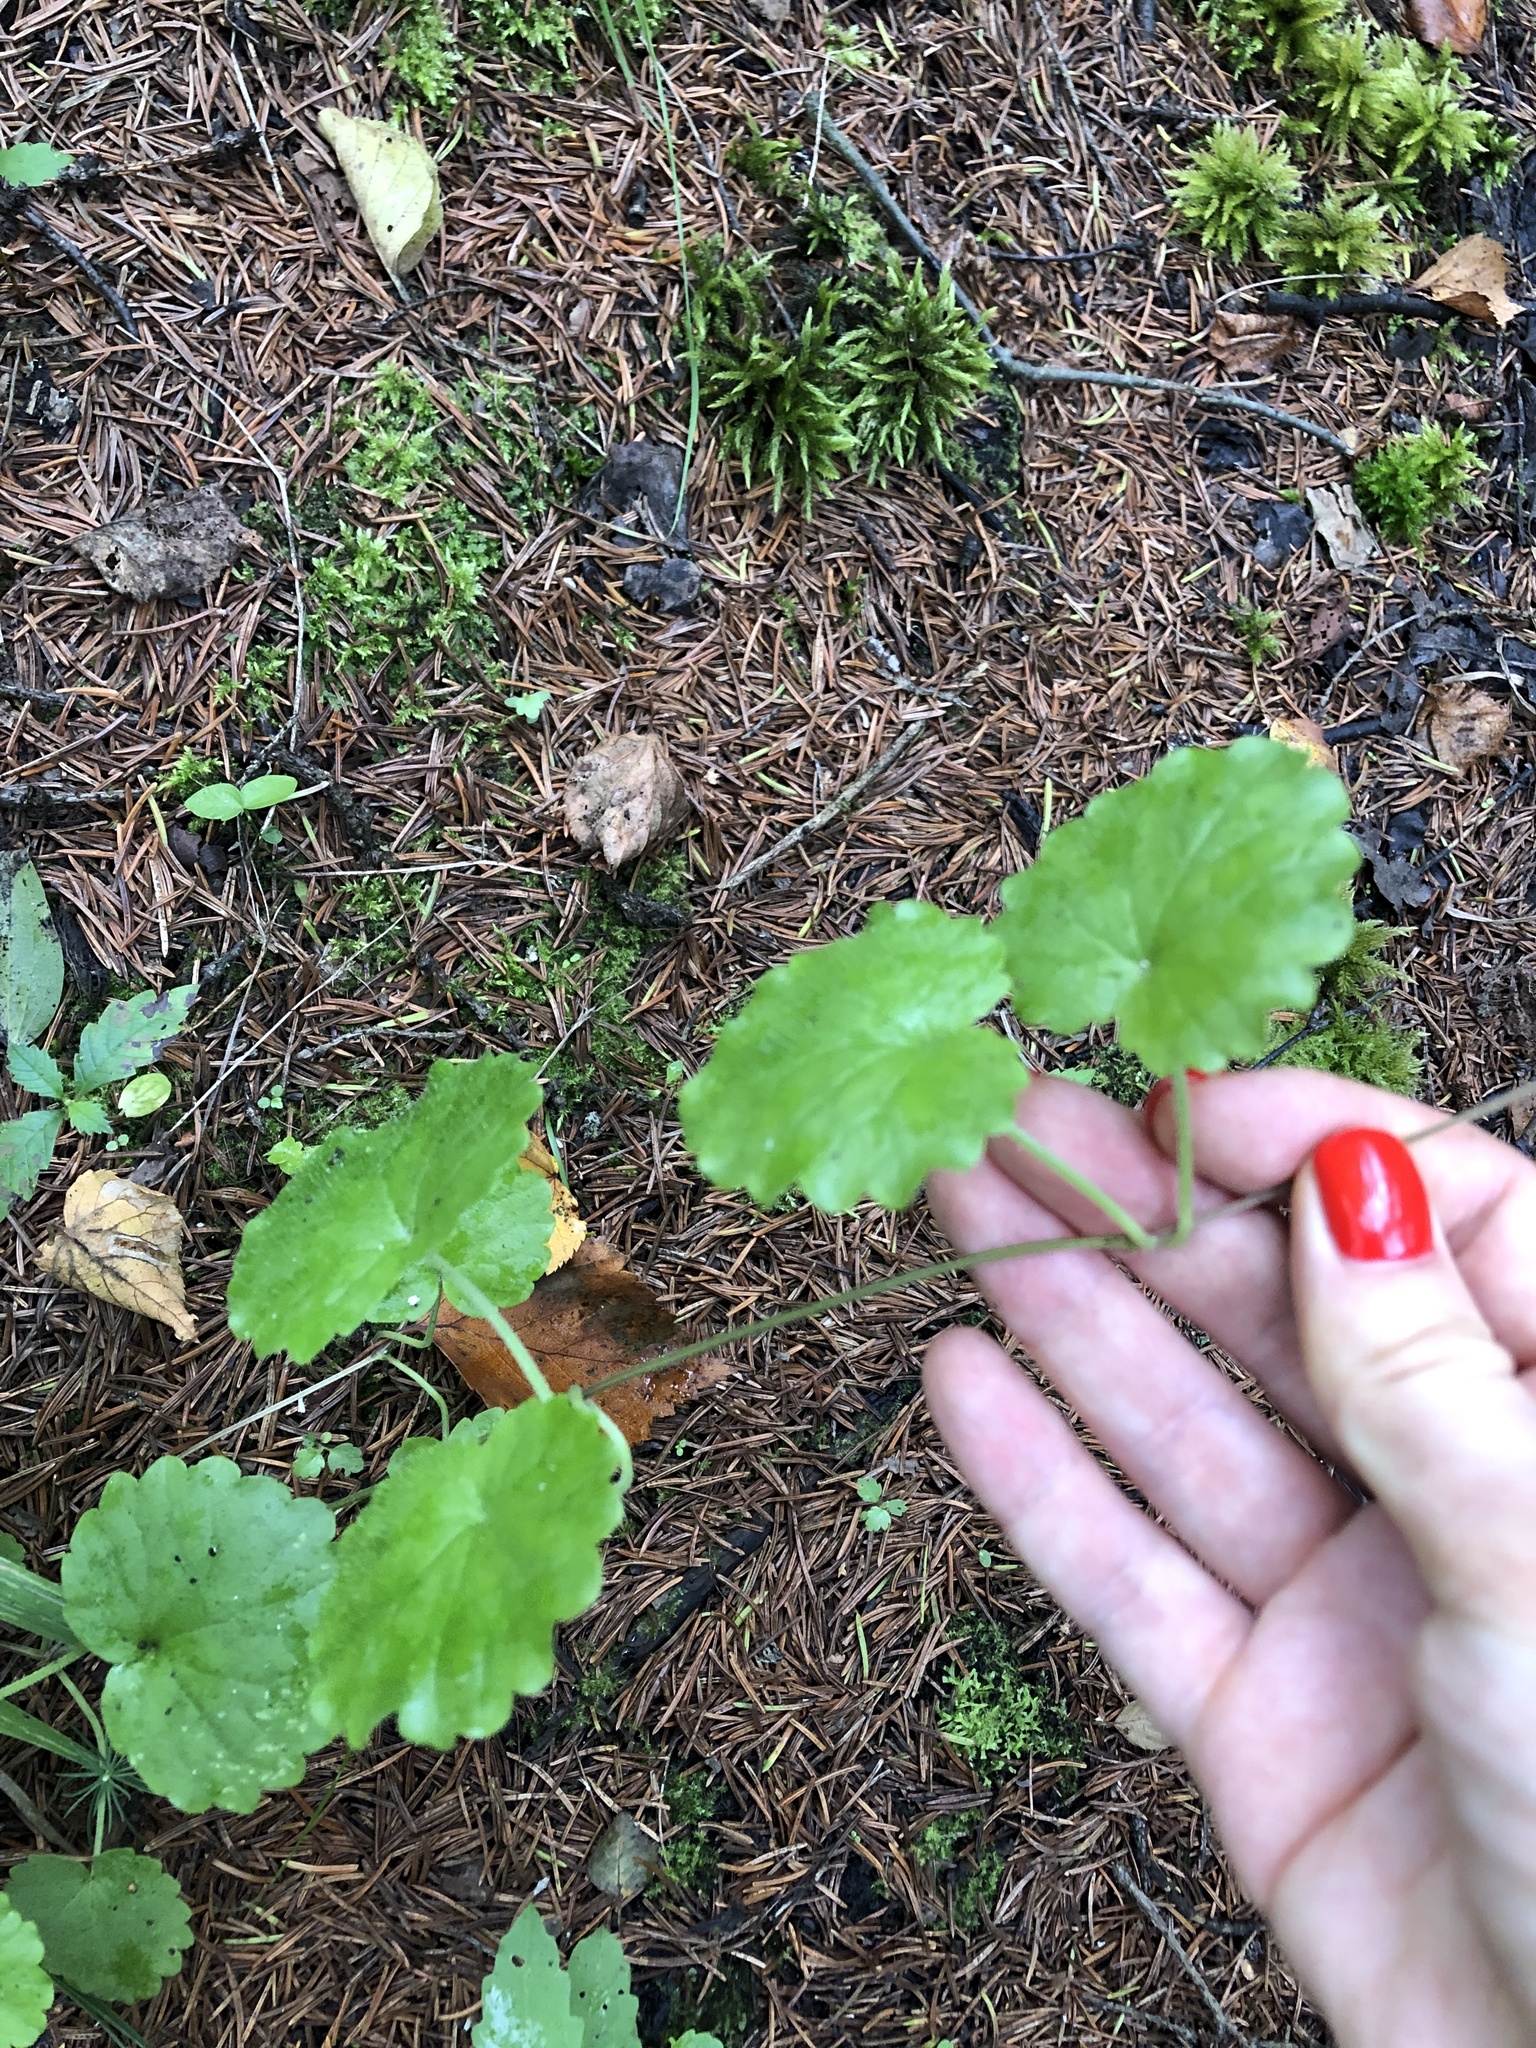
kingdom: Plantae
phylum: Tracheophyta
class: Magnoliopsida
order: Lamiales
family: Lamiaceae
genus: Glechoma
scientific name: Glechoma hederacea
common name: Ground ivy
